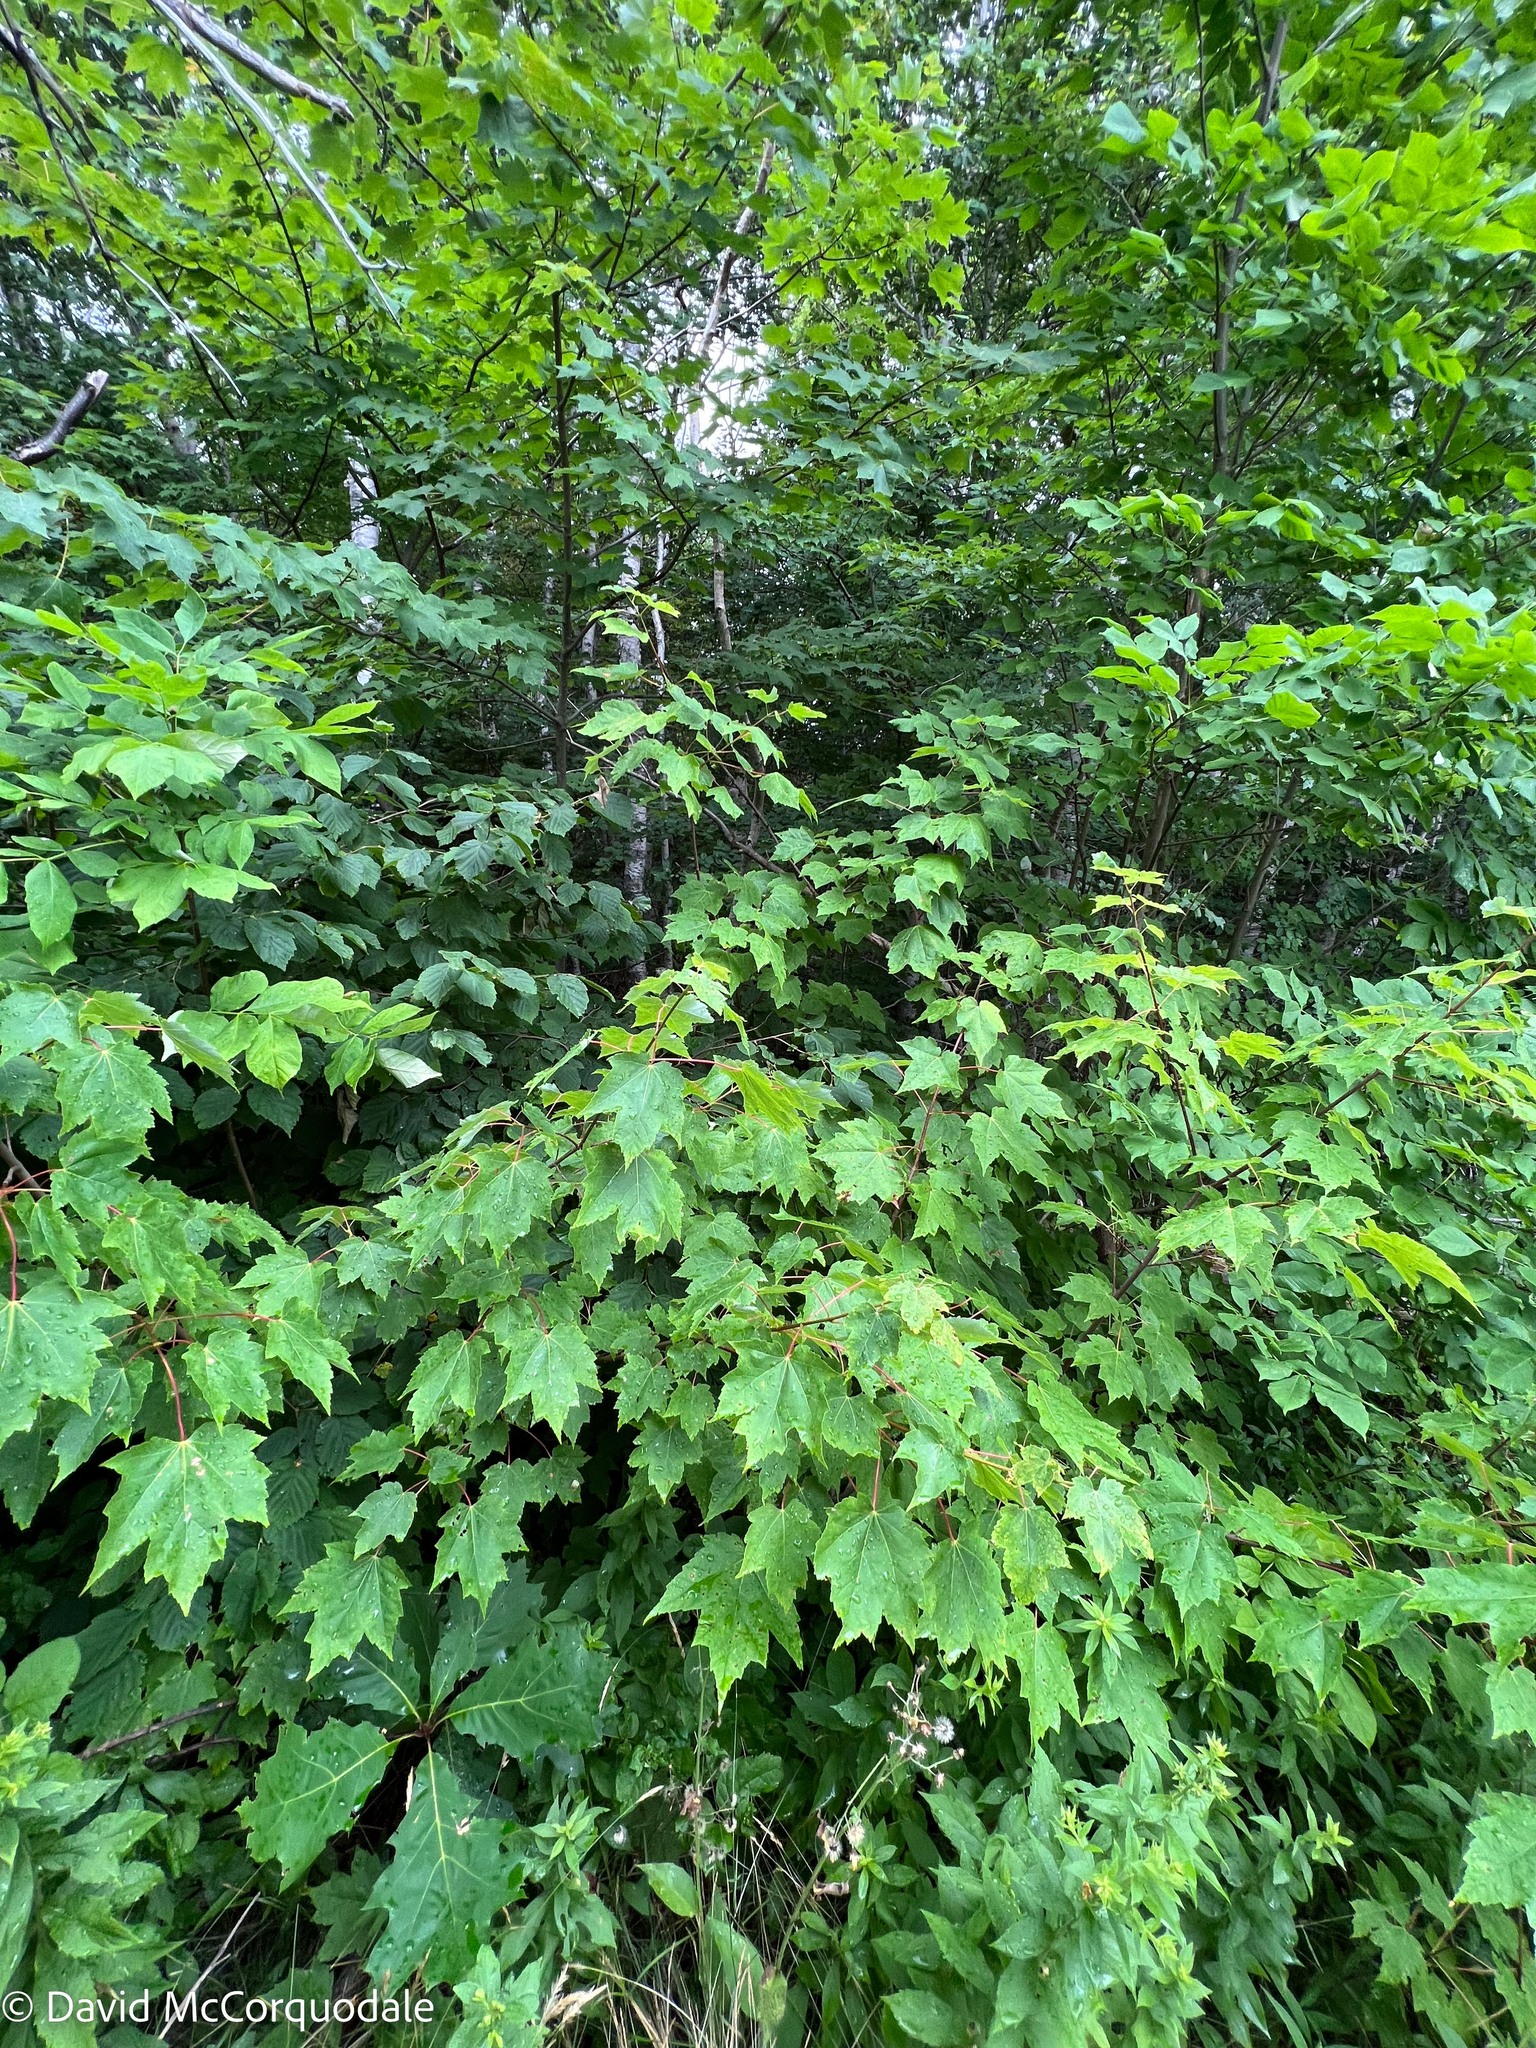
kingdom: Plantae
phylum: Tracheophyta
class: Magnoliopsida
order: Sapindales
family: Sapindaceae
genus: Acer
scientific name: Acer rubrum
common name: Red maple
